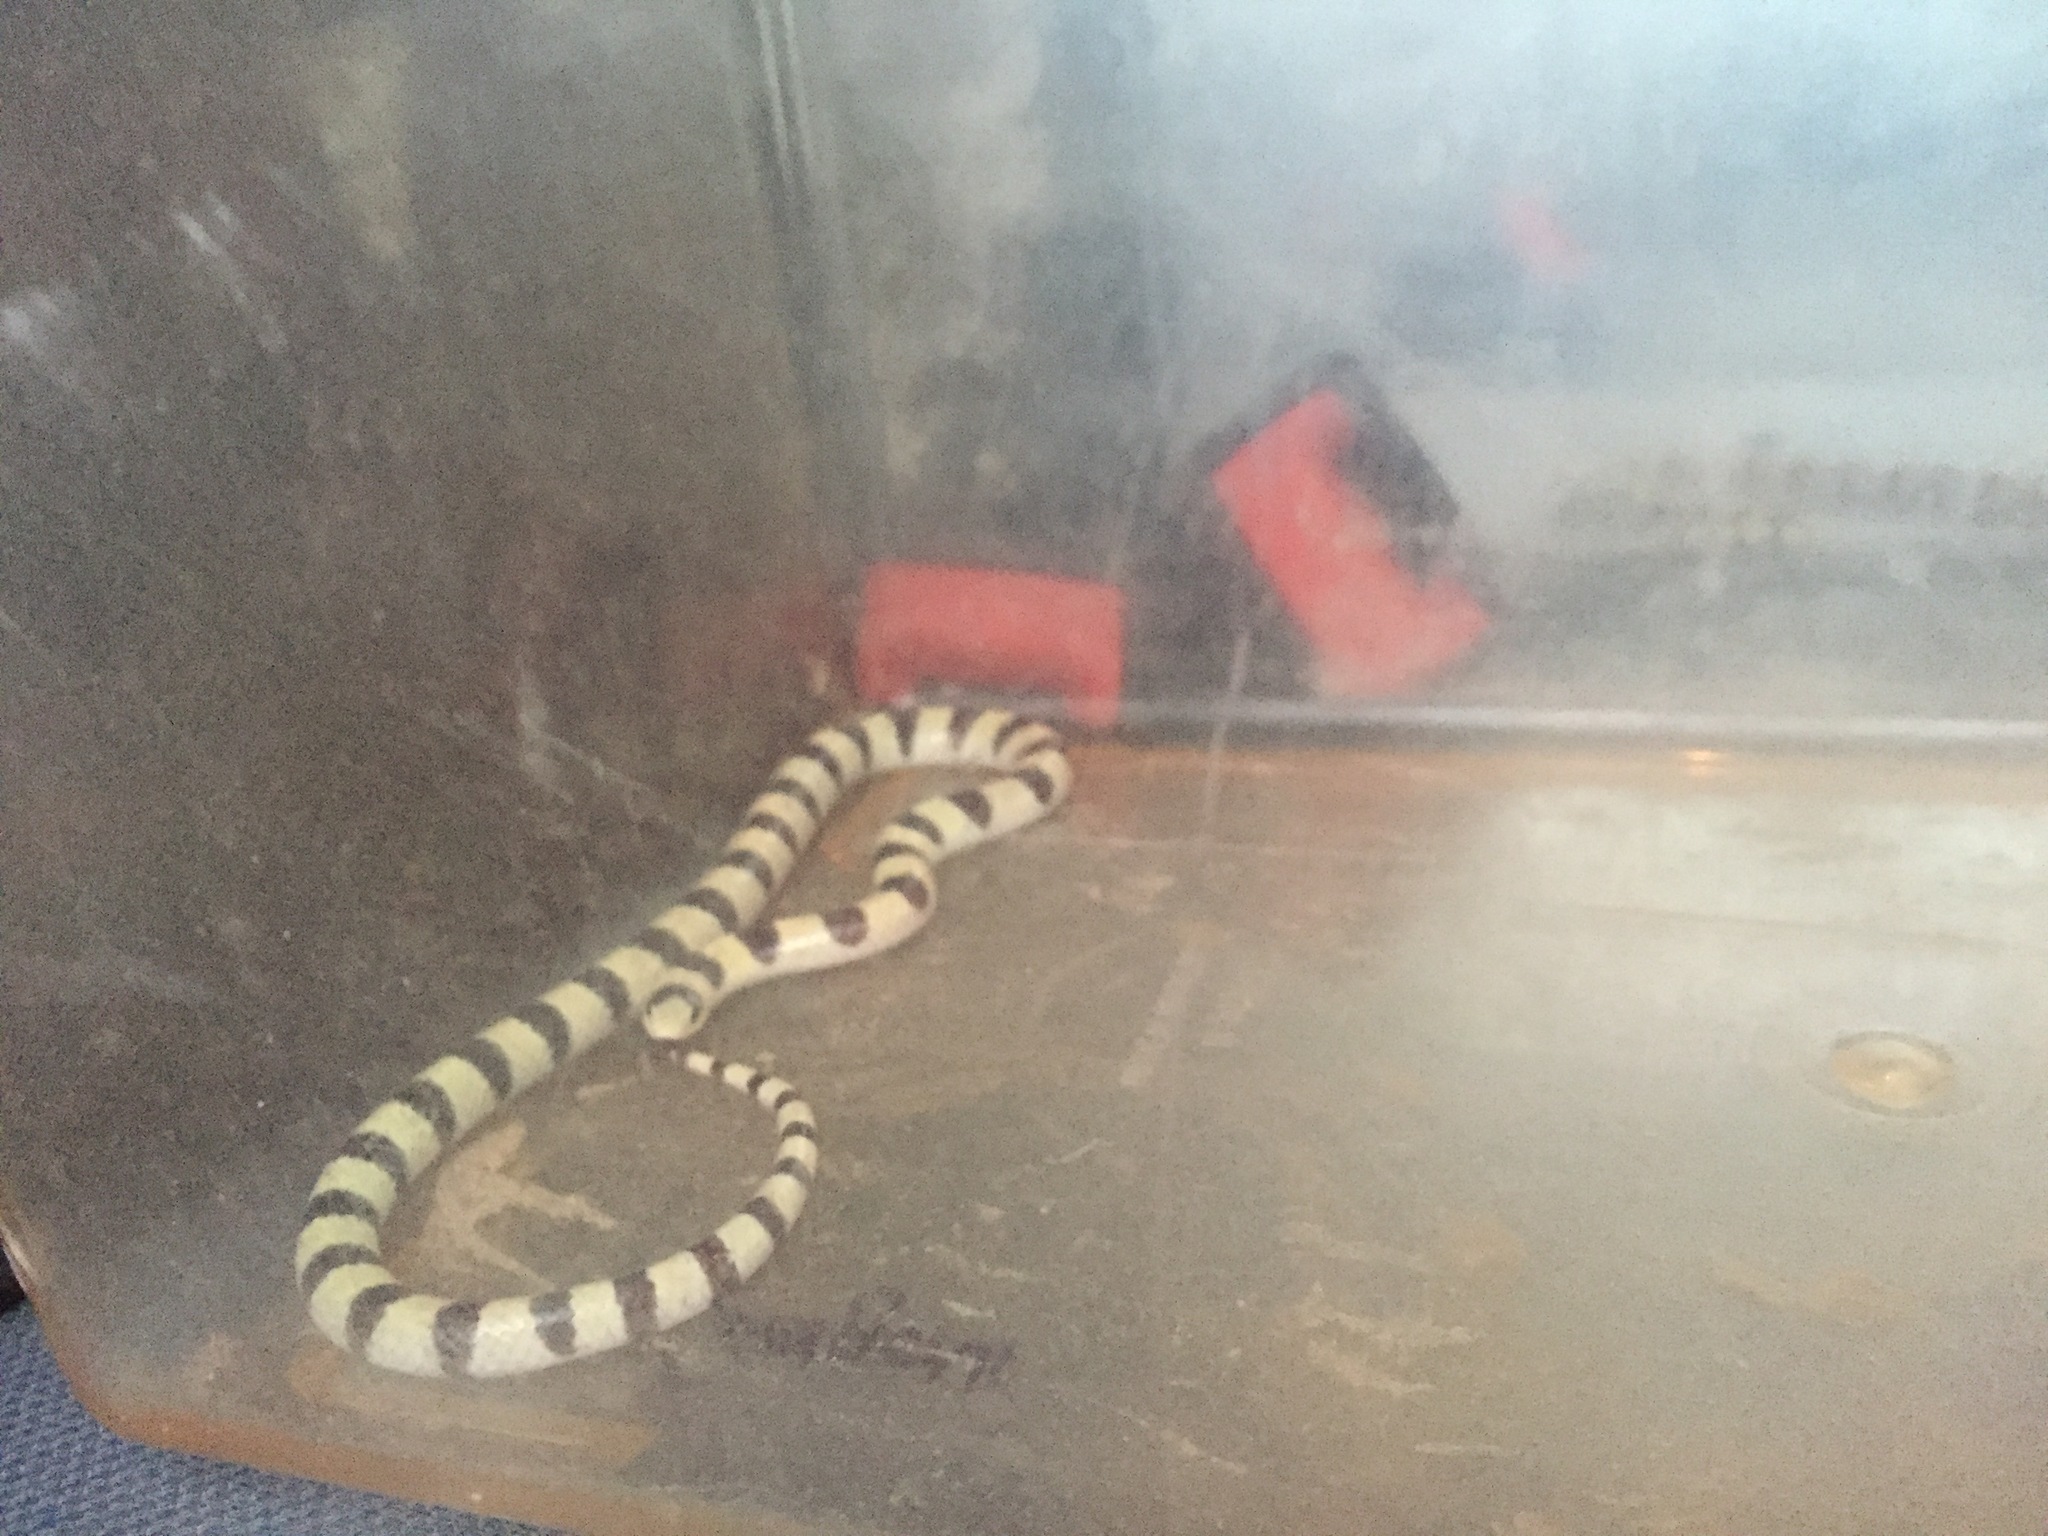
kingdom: Animalia
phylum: Chordata
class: Squamata
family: Colubridae
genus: Sonora
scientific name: Sonora occipitalis
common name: Western shovelnose snake
